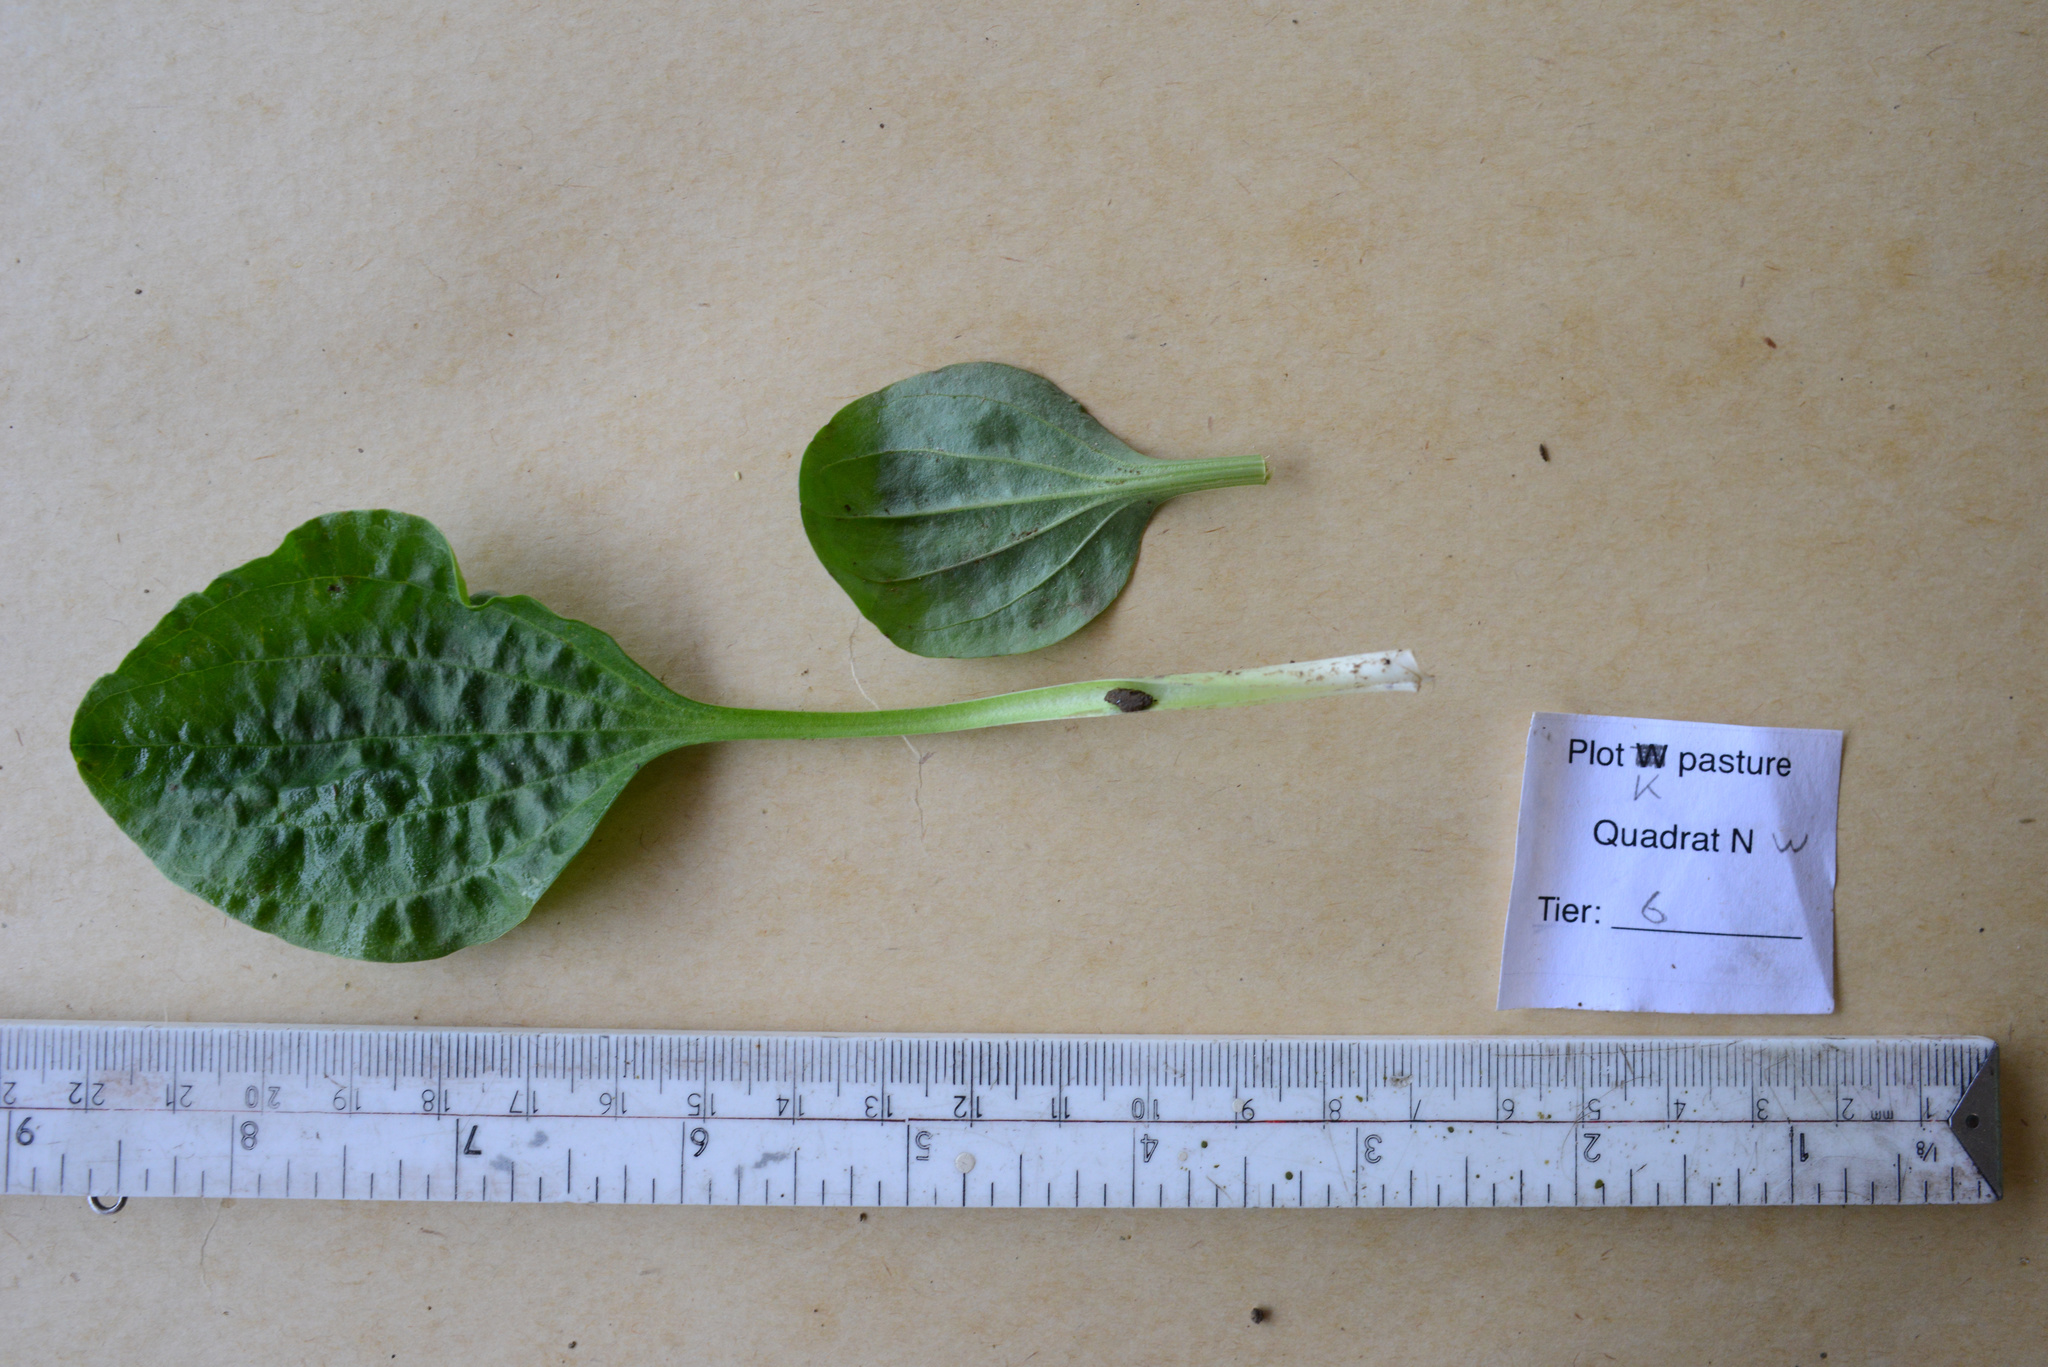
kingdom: Plantae
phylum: Tracheophyta
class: Magnoliopsida
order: Lamiales
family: Plantaginaceae
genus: Plantago
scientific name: Plantago major
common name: Common plantain
